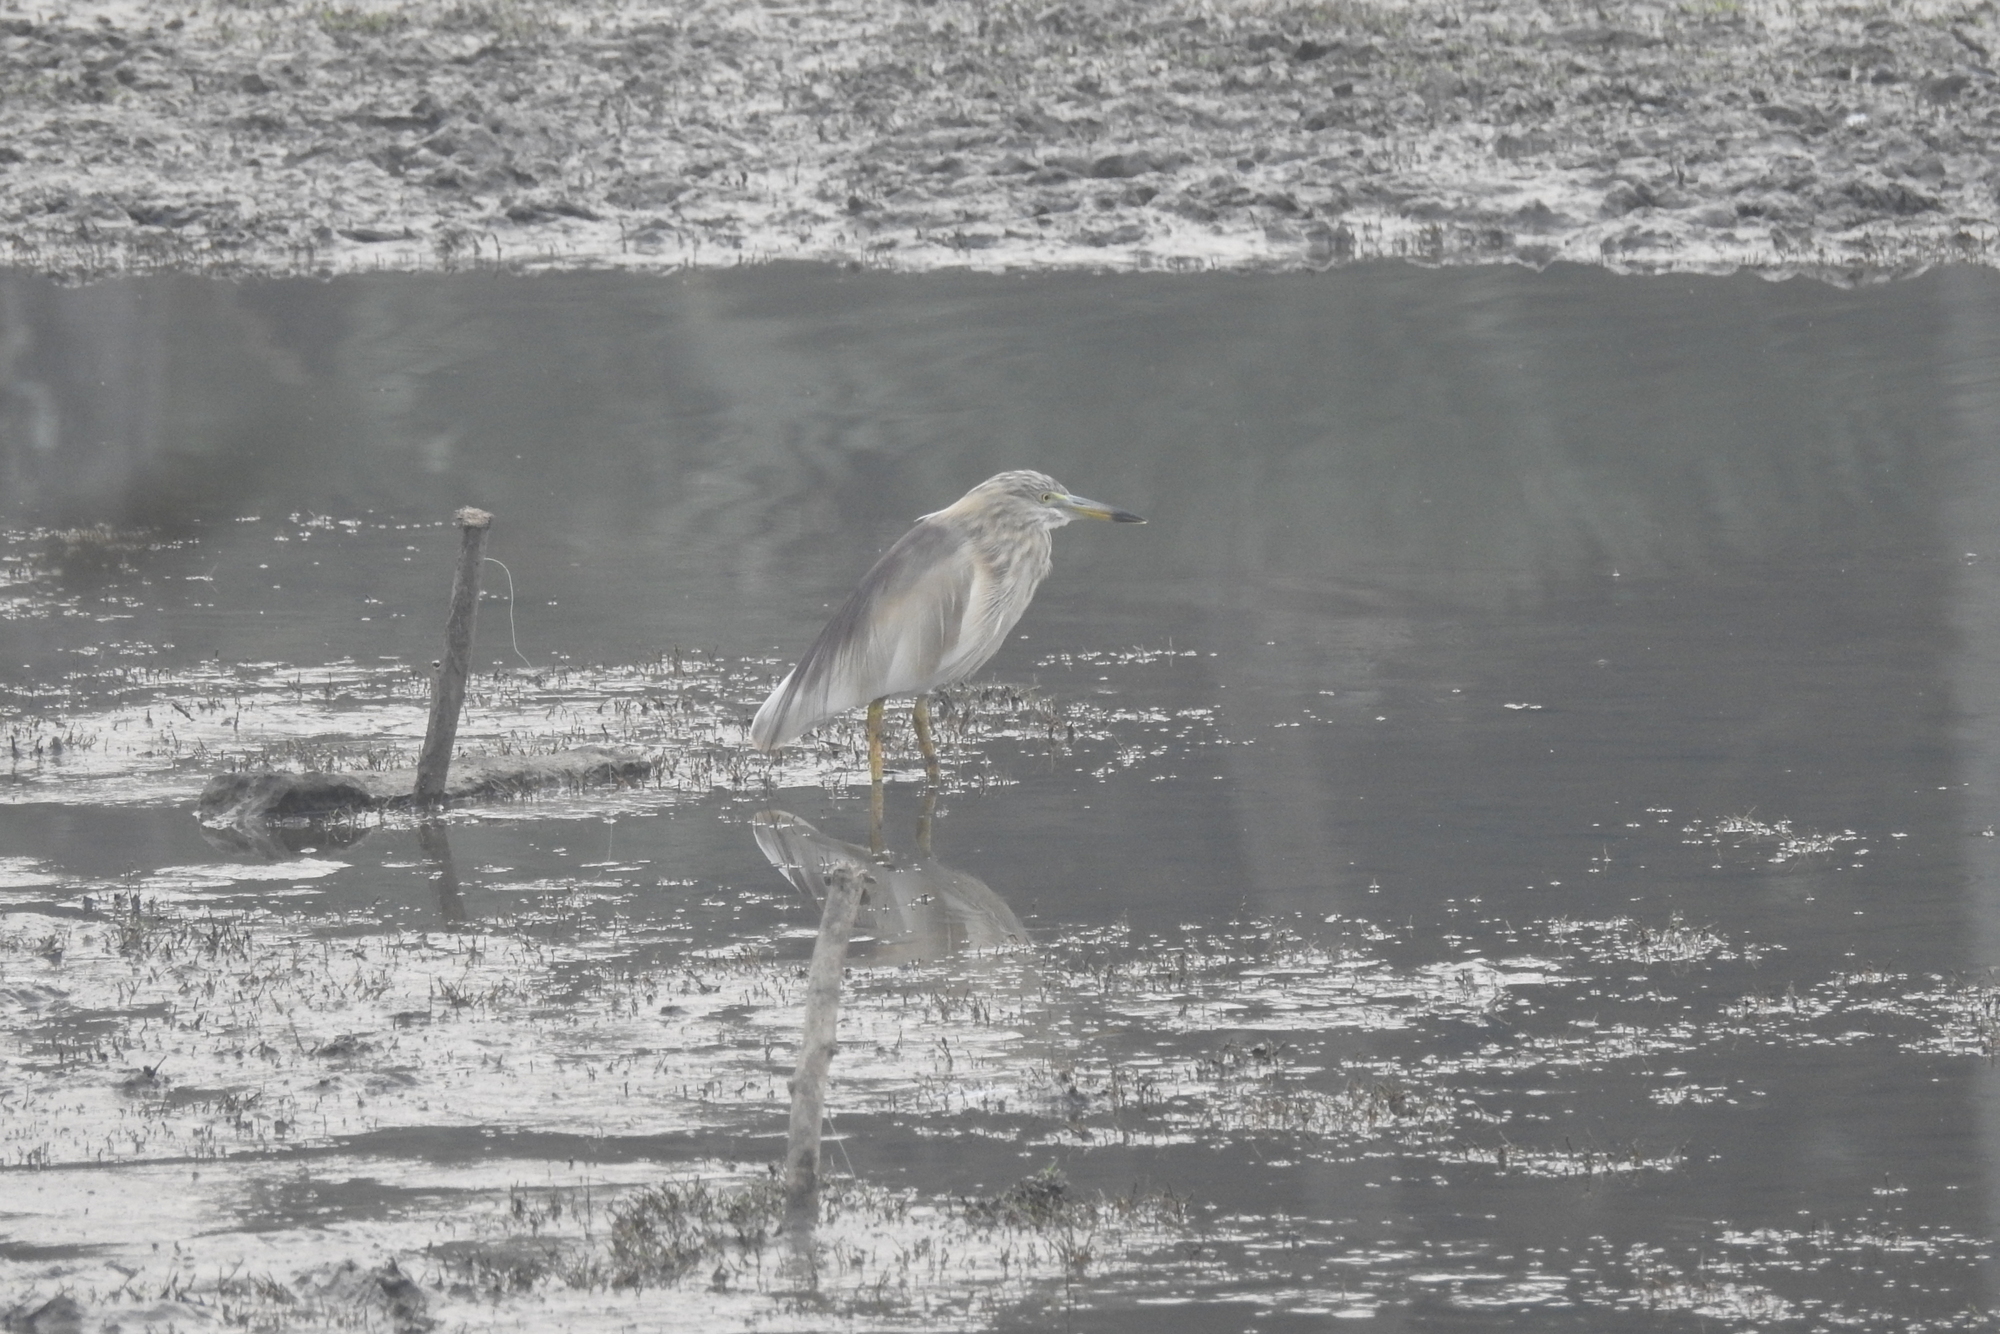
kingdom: Animalia
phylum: Chordata
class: Aves
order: Pelecaniformes
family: Ardeidae
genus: Ardeola
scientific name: Ardeola grayii
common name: Indian pond heron
